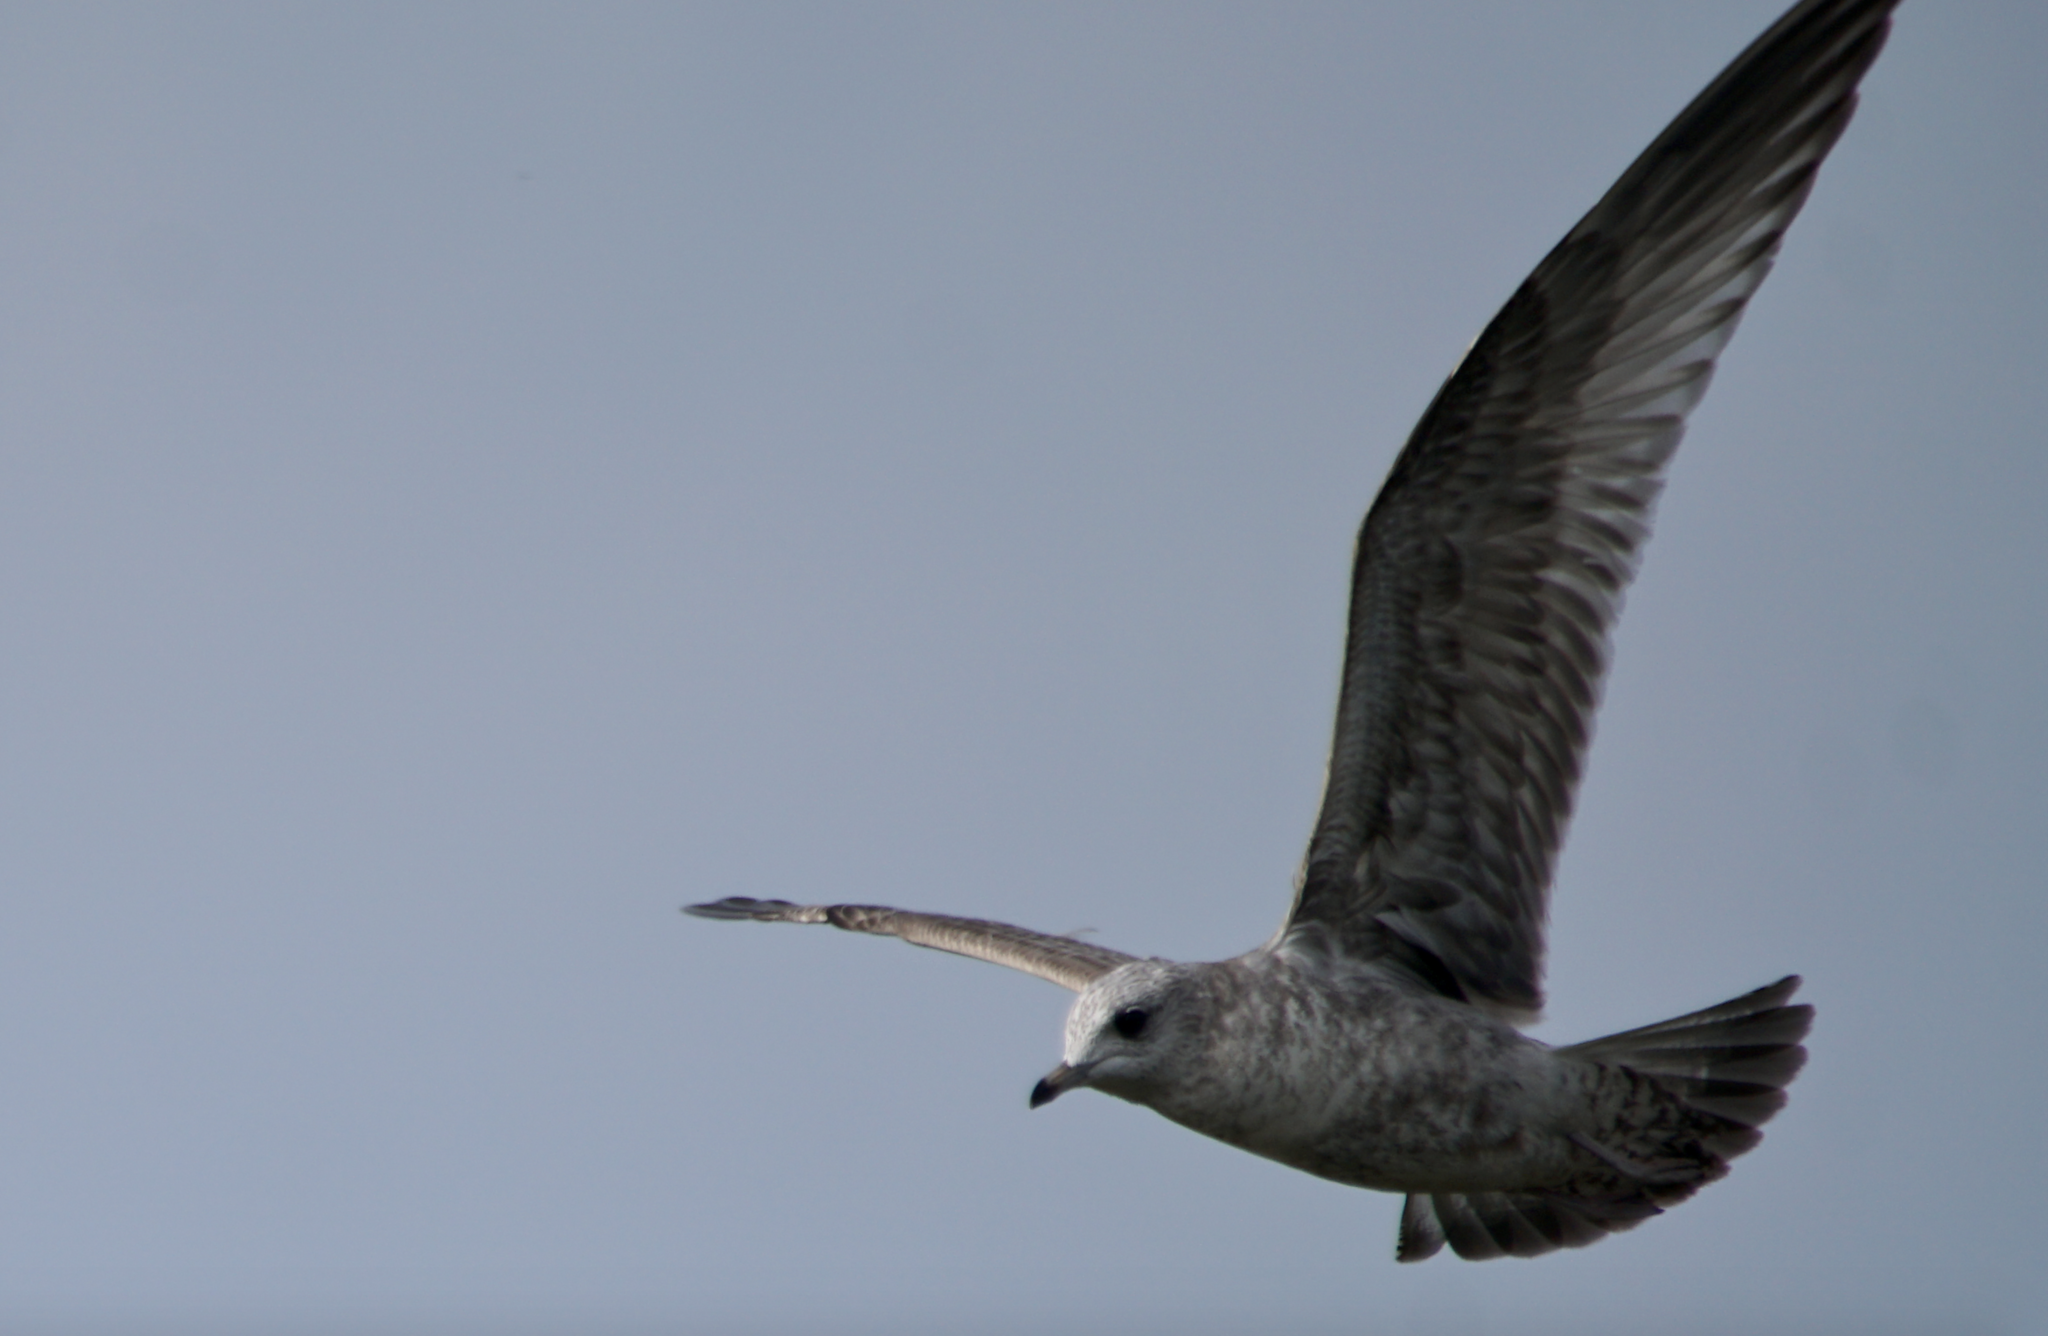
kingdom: Animalia
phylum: Chordata
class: Aves
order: Charadriiformes
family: Laridae
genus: Larus
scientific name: Larus brachyrhynchus
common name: Short-billed gull
